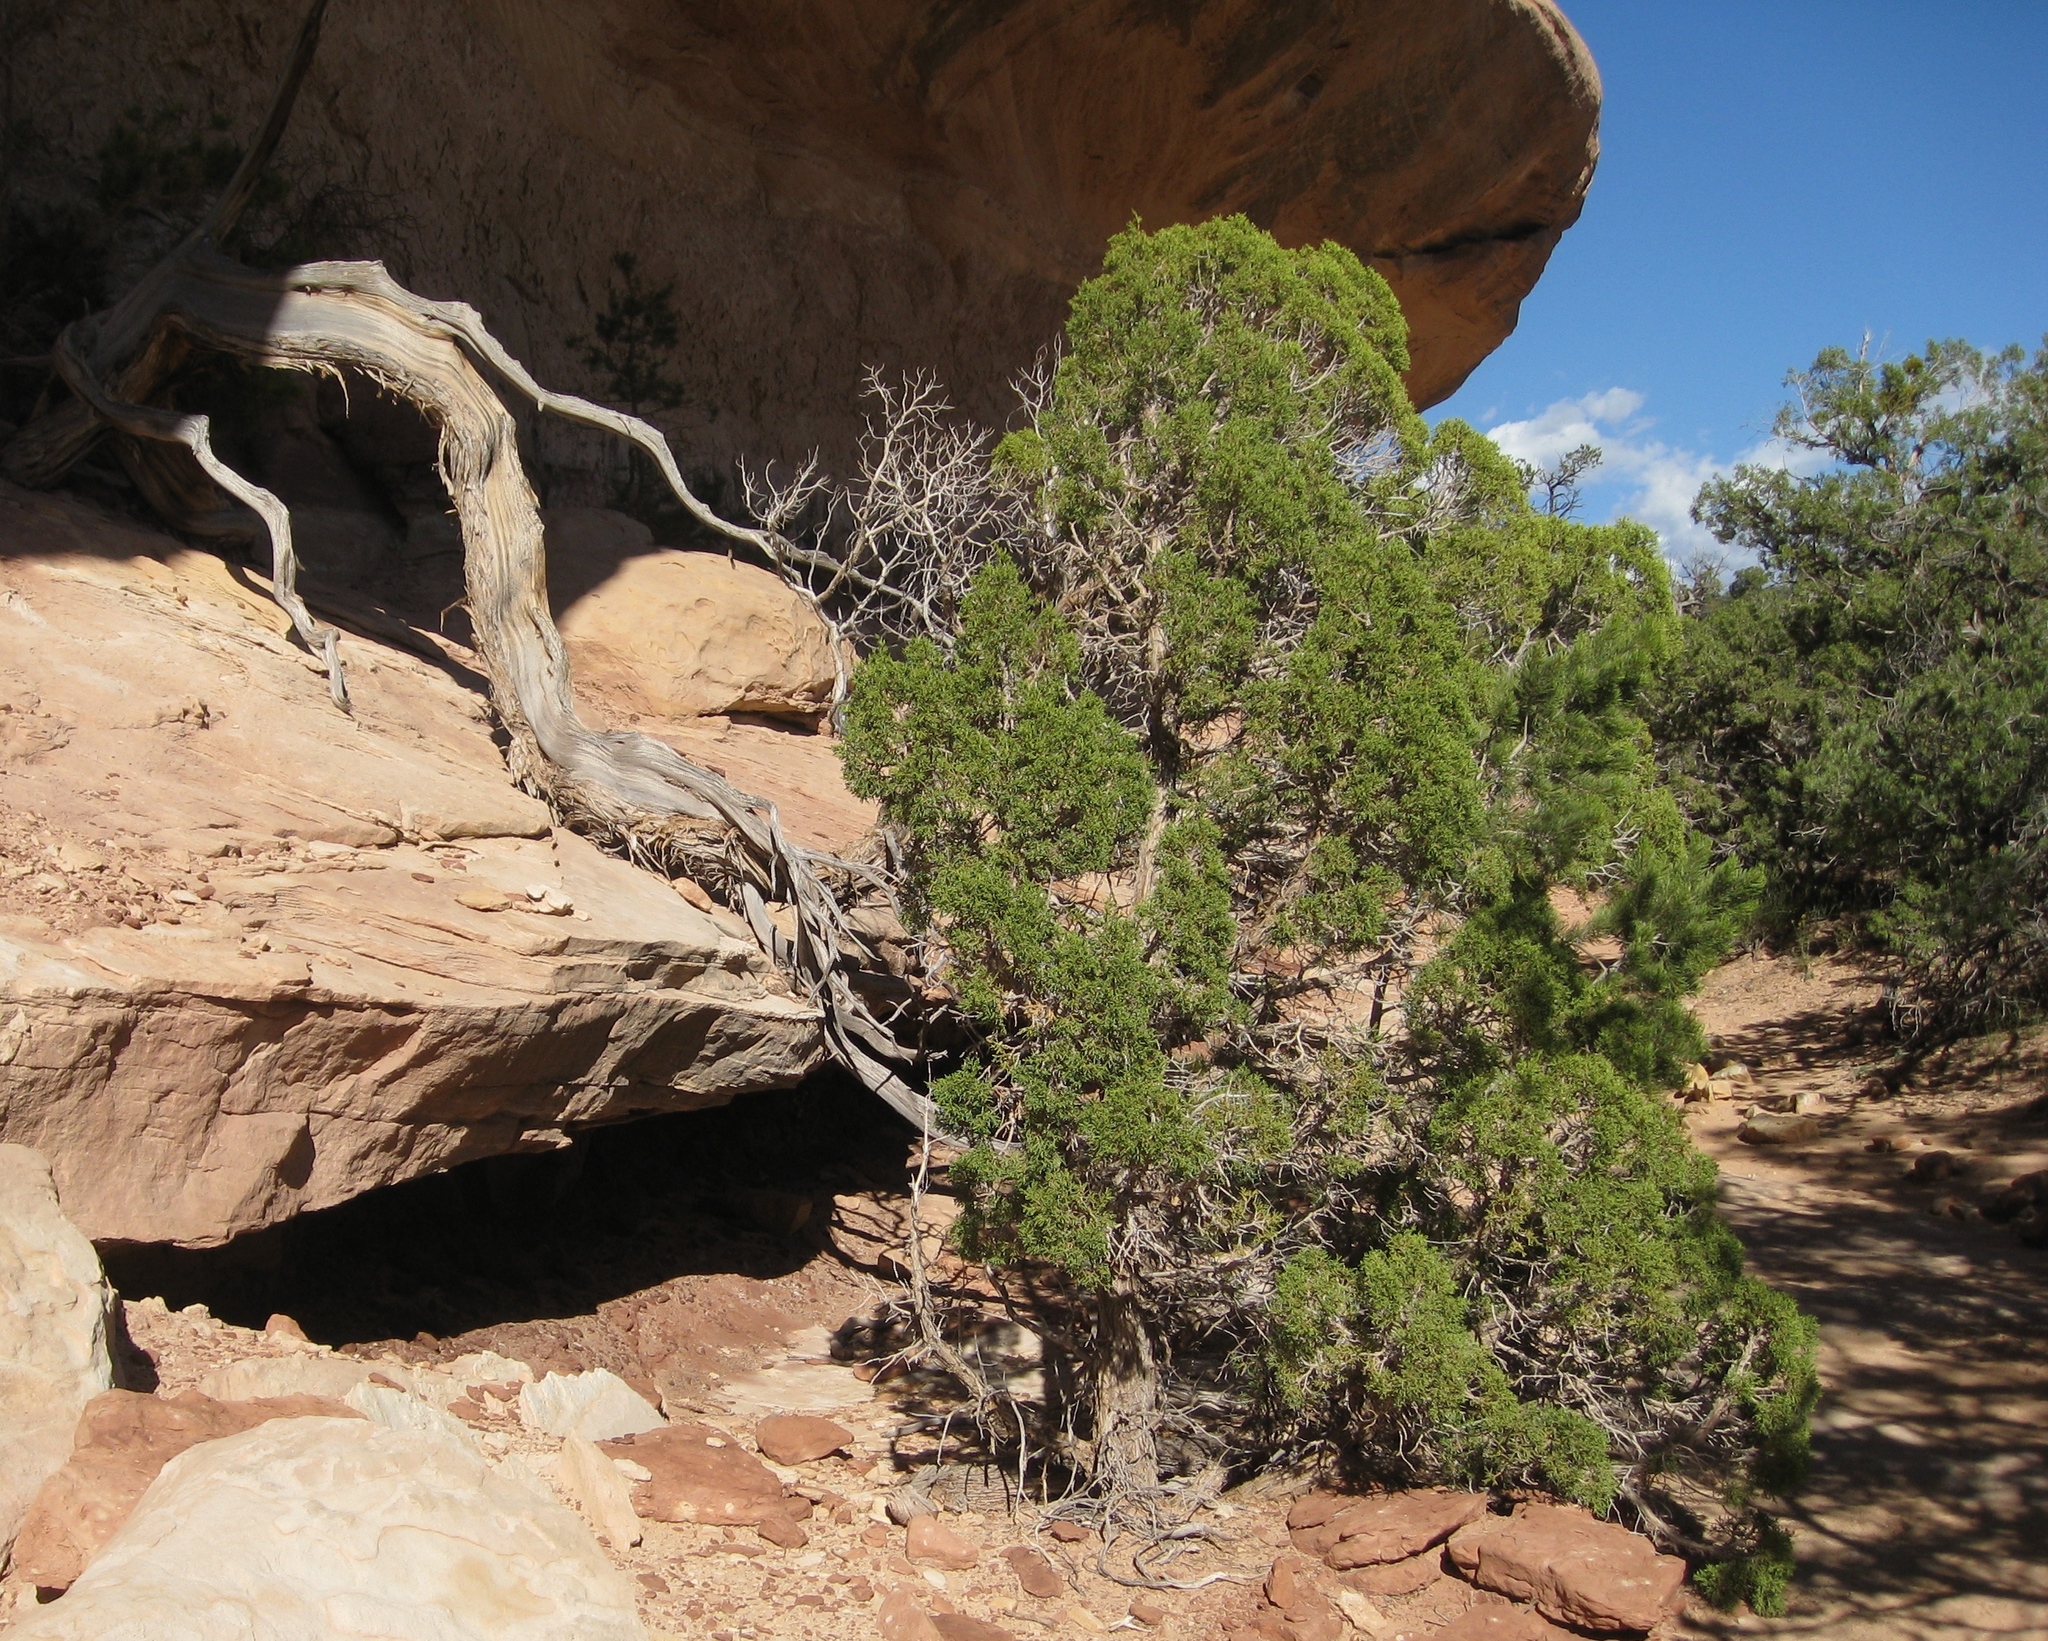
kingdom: Plantae
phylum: Tracheophyta
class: Pinopsida
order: Pinales
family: Cupressaceae
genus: Juniperus
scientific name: Juniperus osteosperma
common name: Utah juniper
